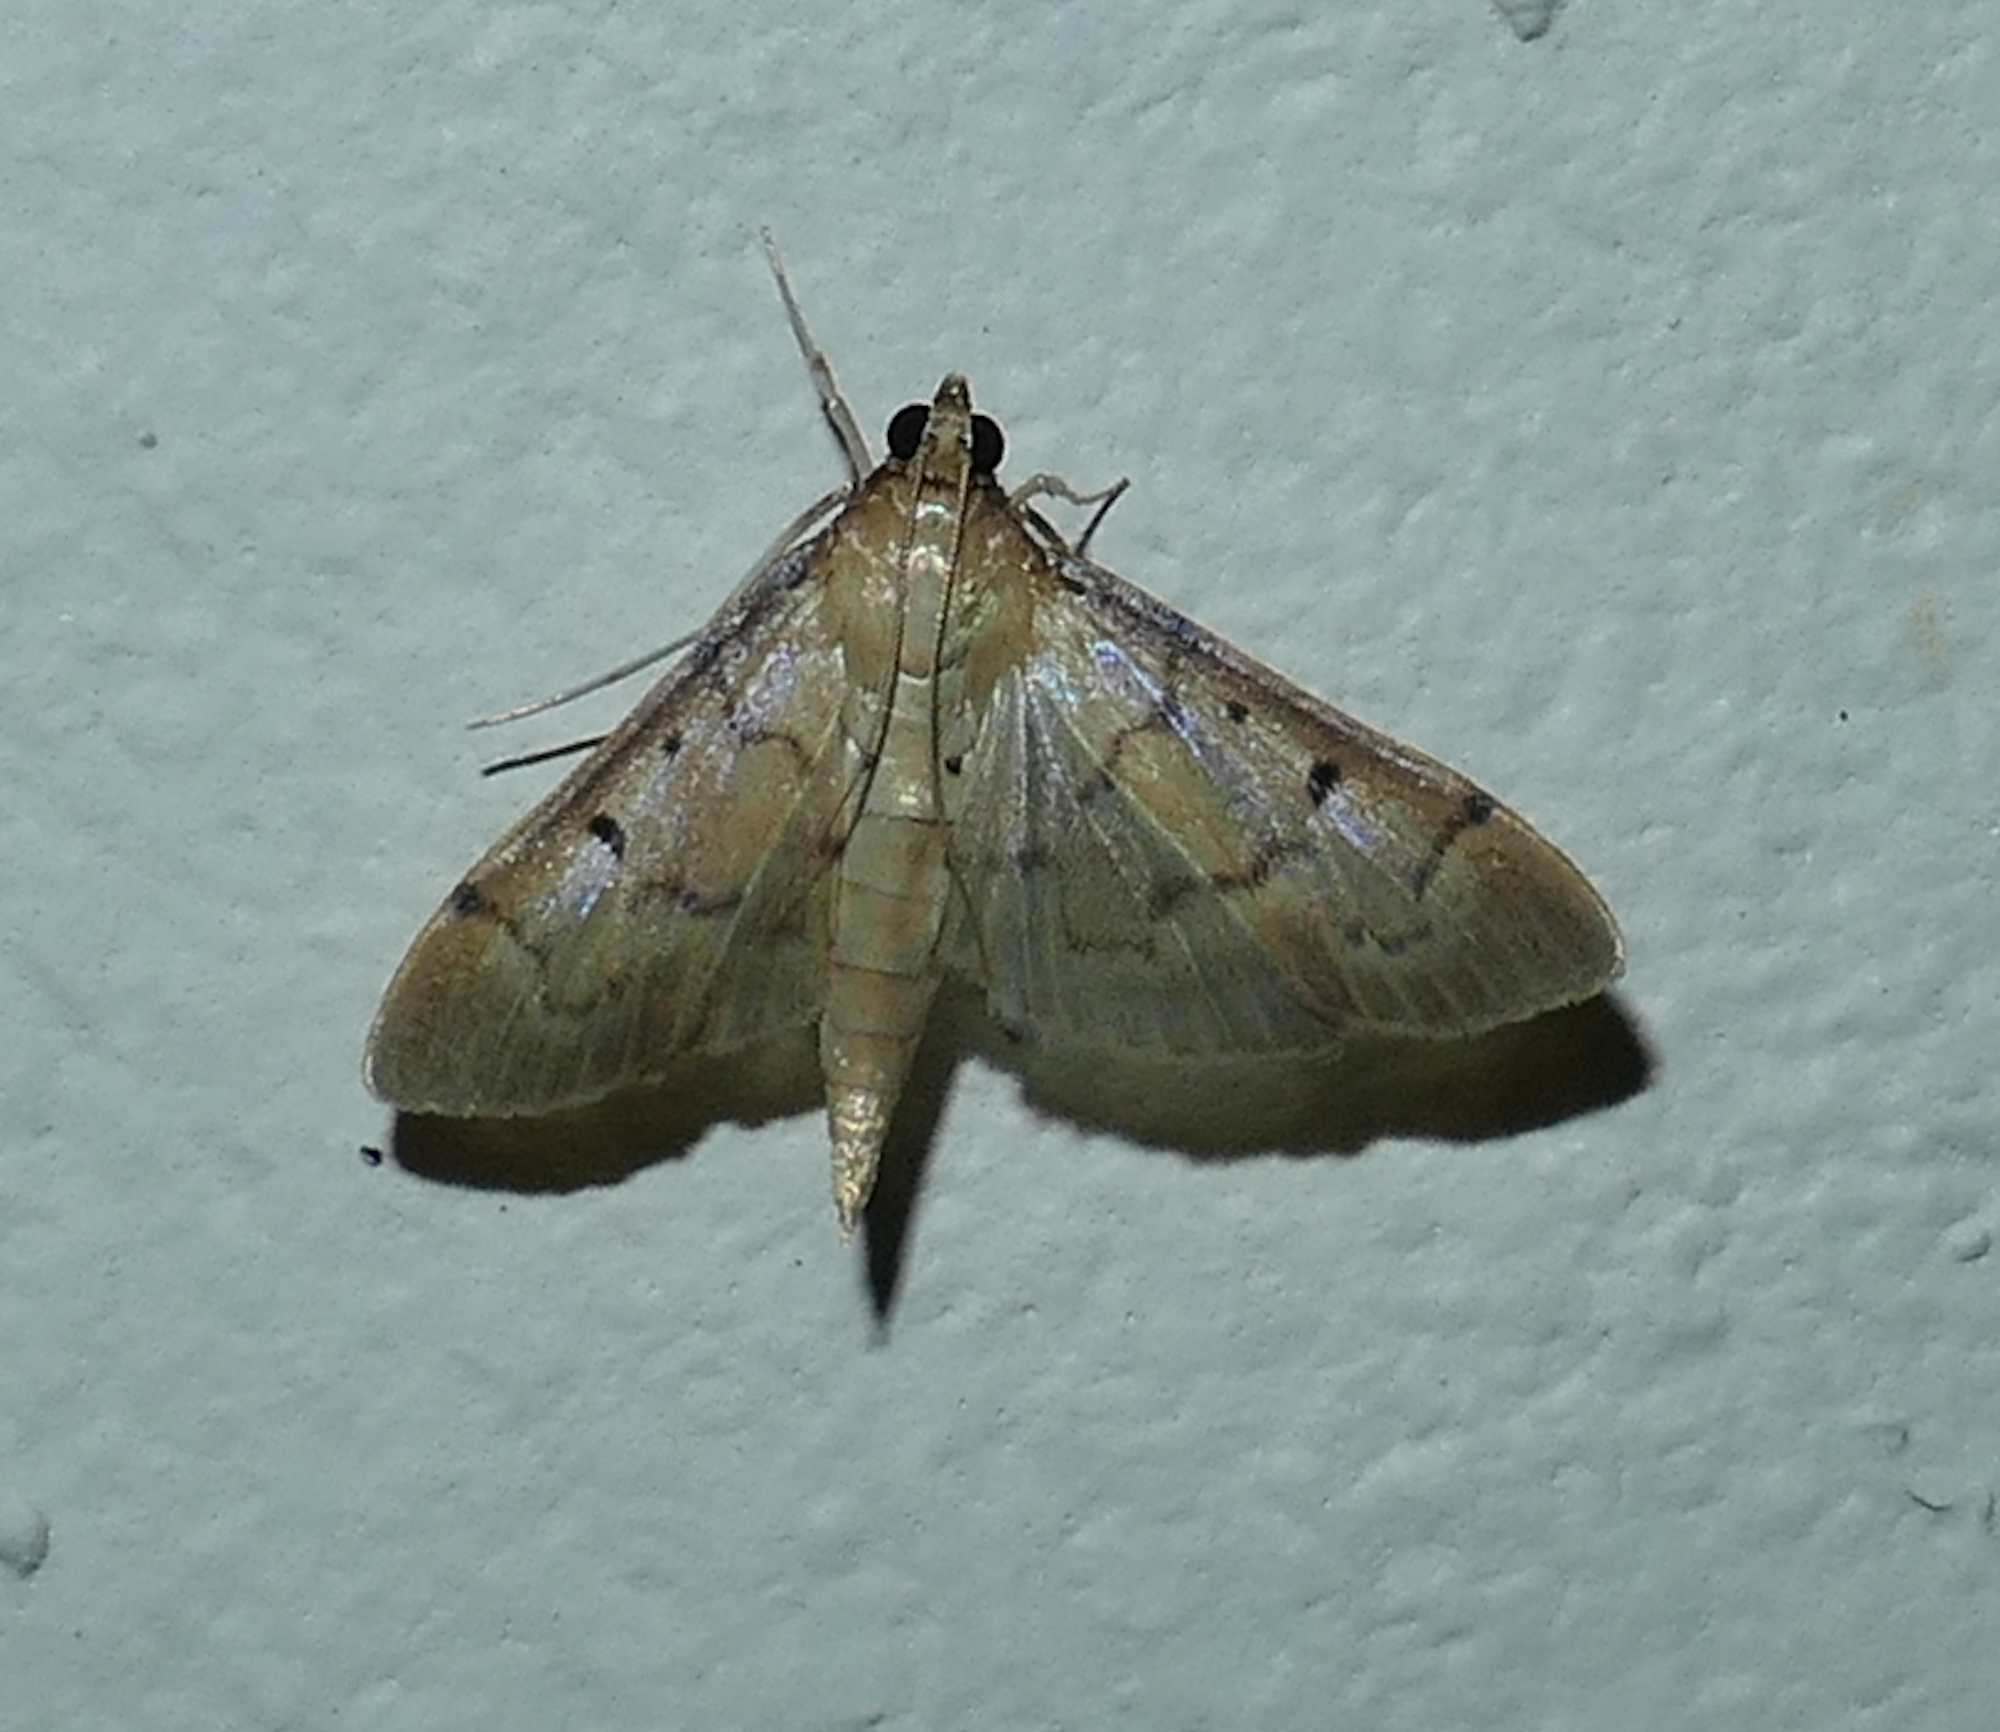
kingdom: Animalia
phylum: Arthropoda
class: Insecta
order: Lepidoptera
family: Crambidae
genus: Herpetogramma
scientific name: Herpetogramma bipunctalis
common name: Southern beet webworm
